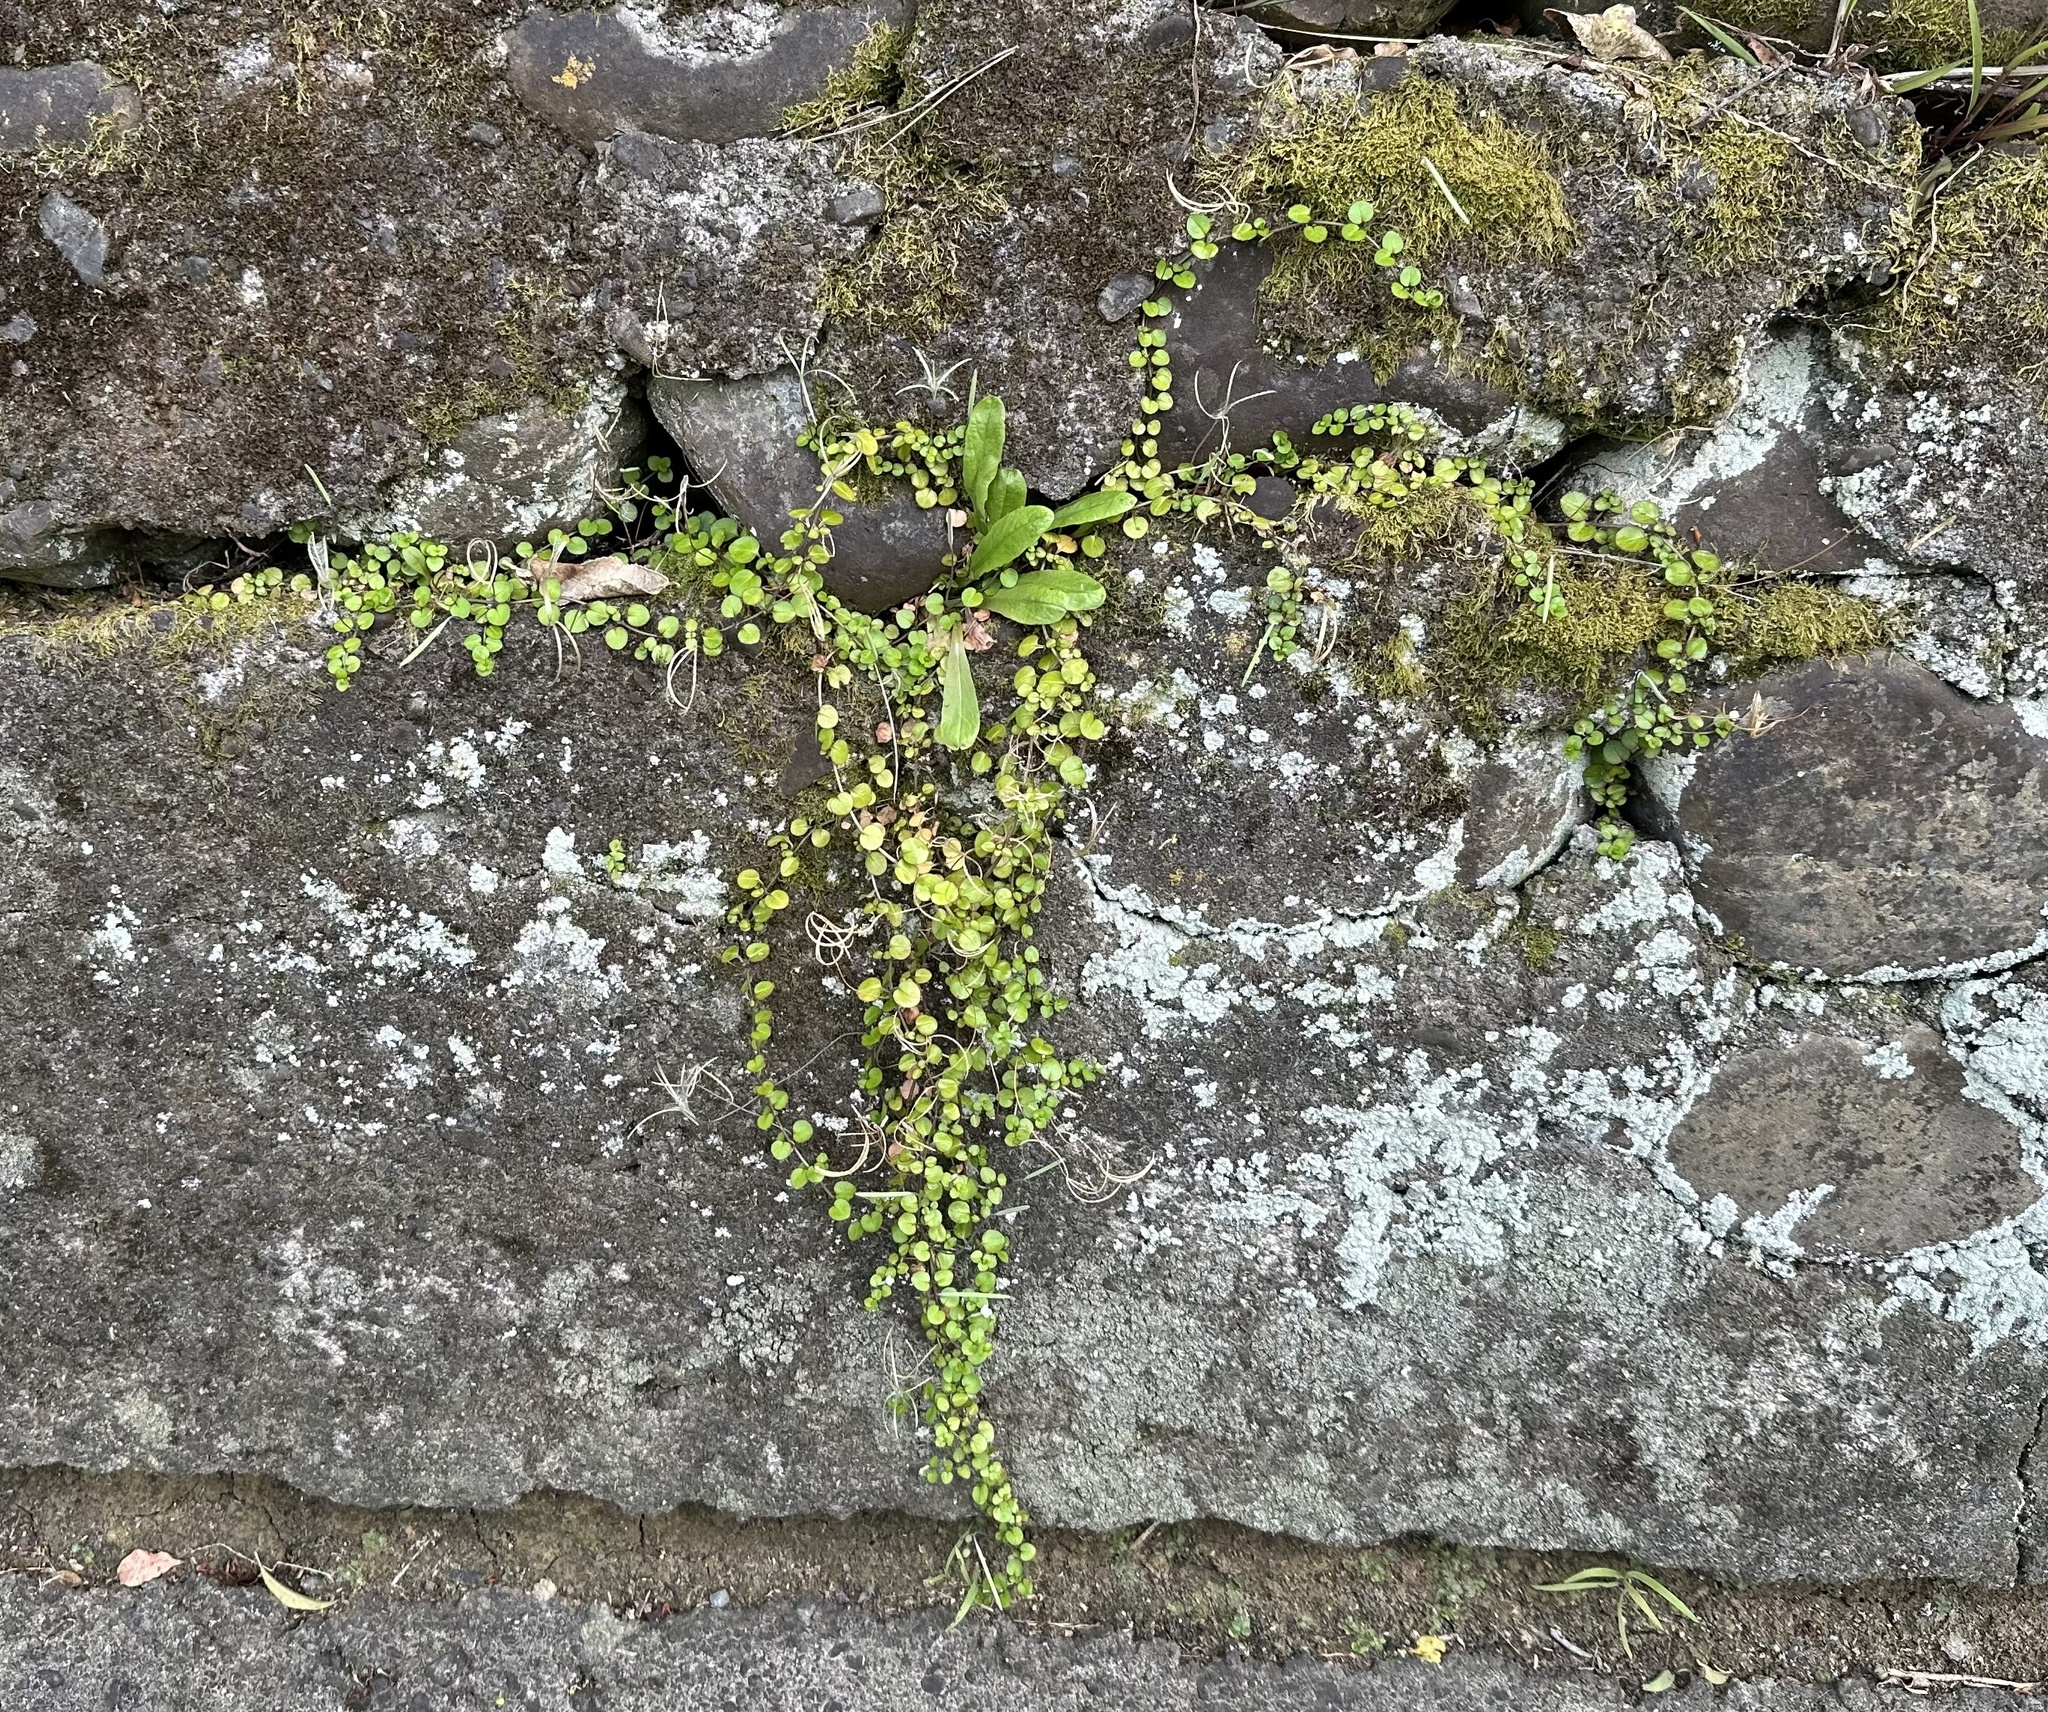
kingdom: Plantae
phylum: Tracheophyta
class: Magnoliopsida
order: Myrtales
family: Onagraceae
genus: Epilobium
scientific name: Epilobium nummularifolium
